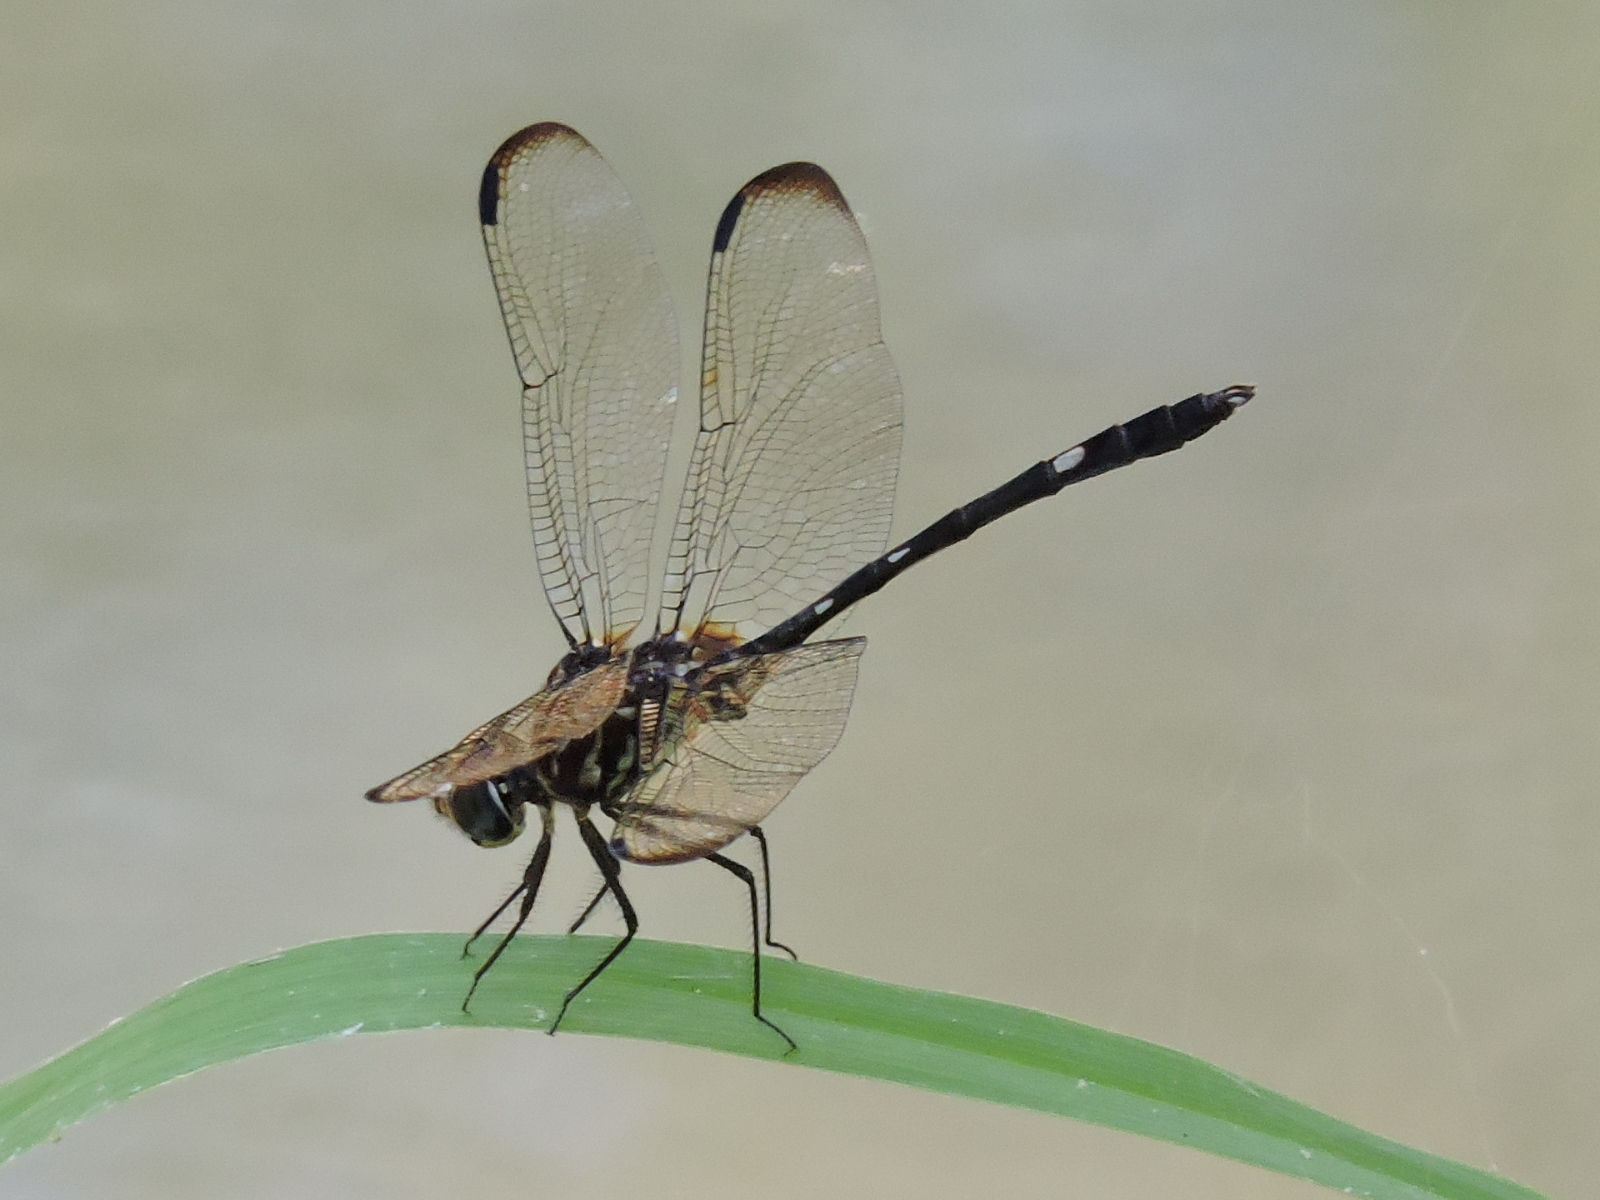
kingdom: Animalia
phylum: Arthropoda
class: Insecta
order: Odonata
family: Libellulidae
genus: Dythemis
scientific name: Dythemis velox
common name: Swift setwing
